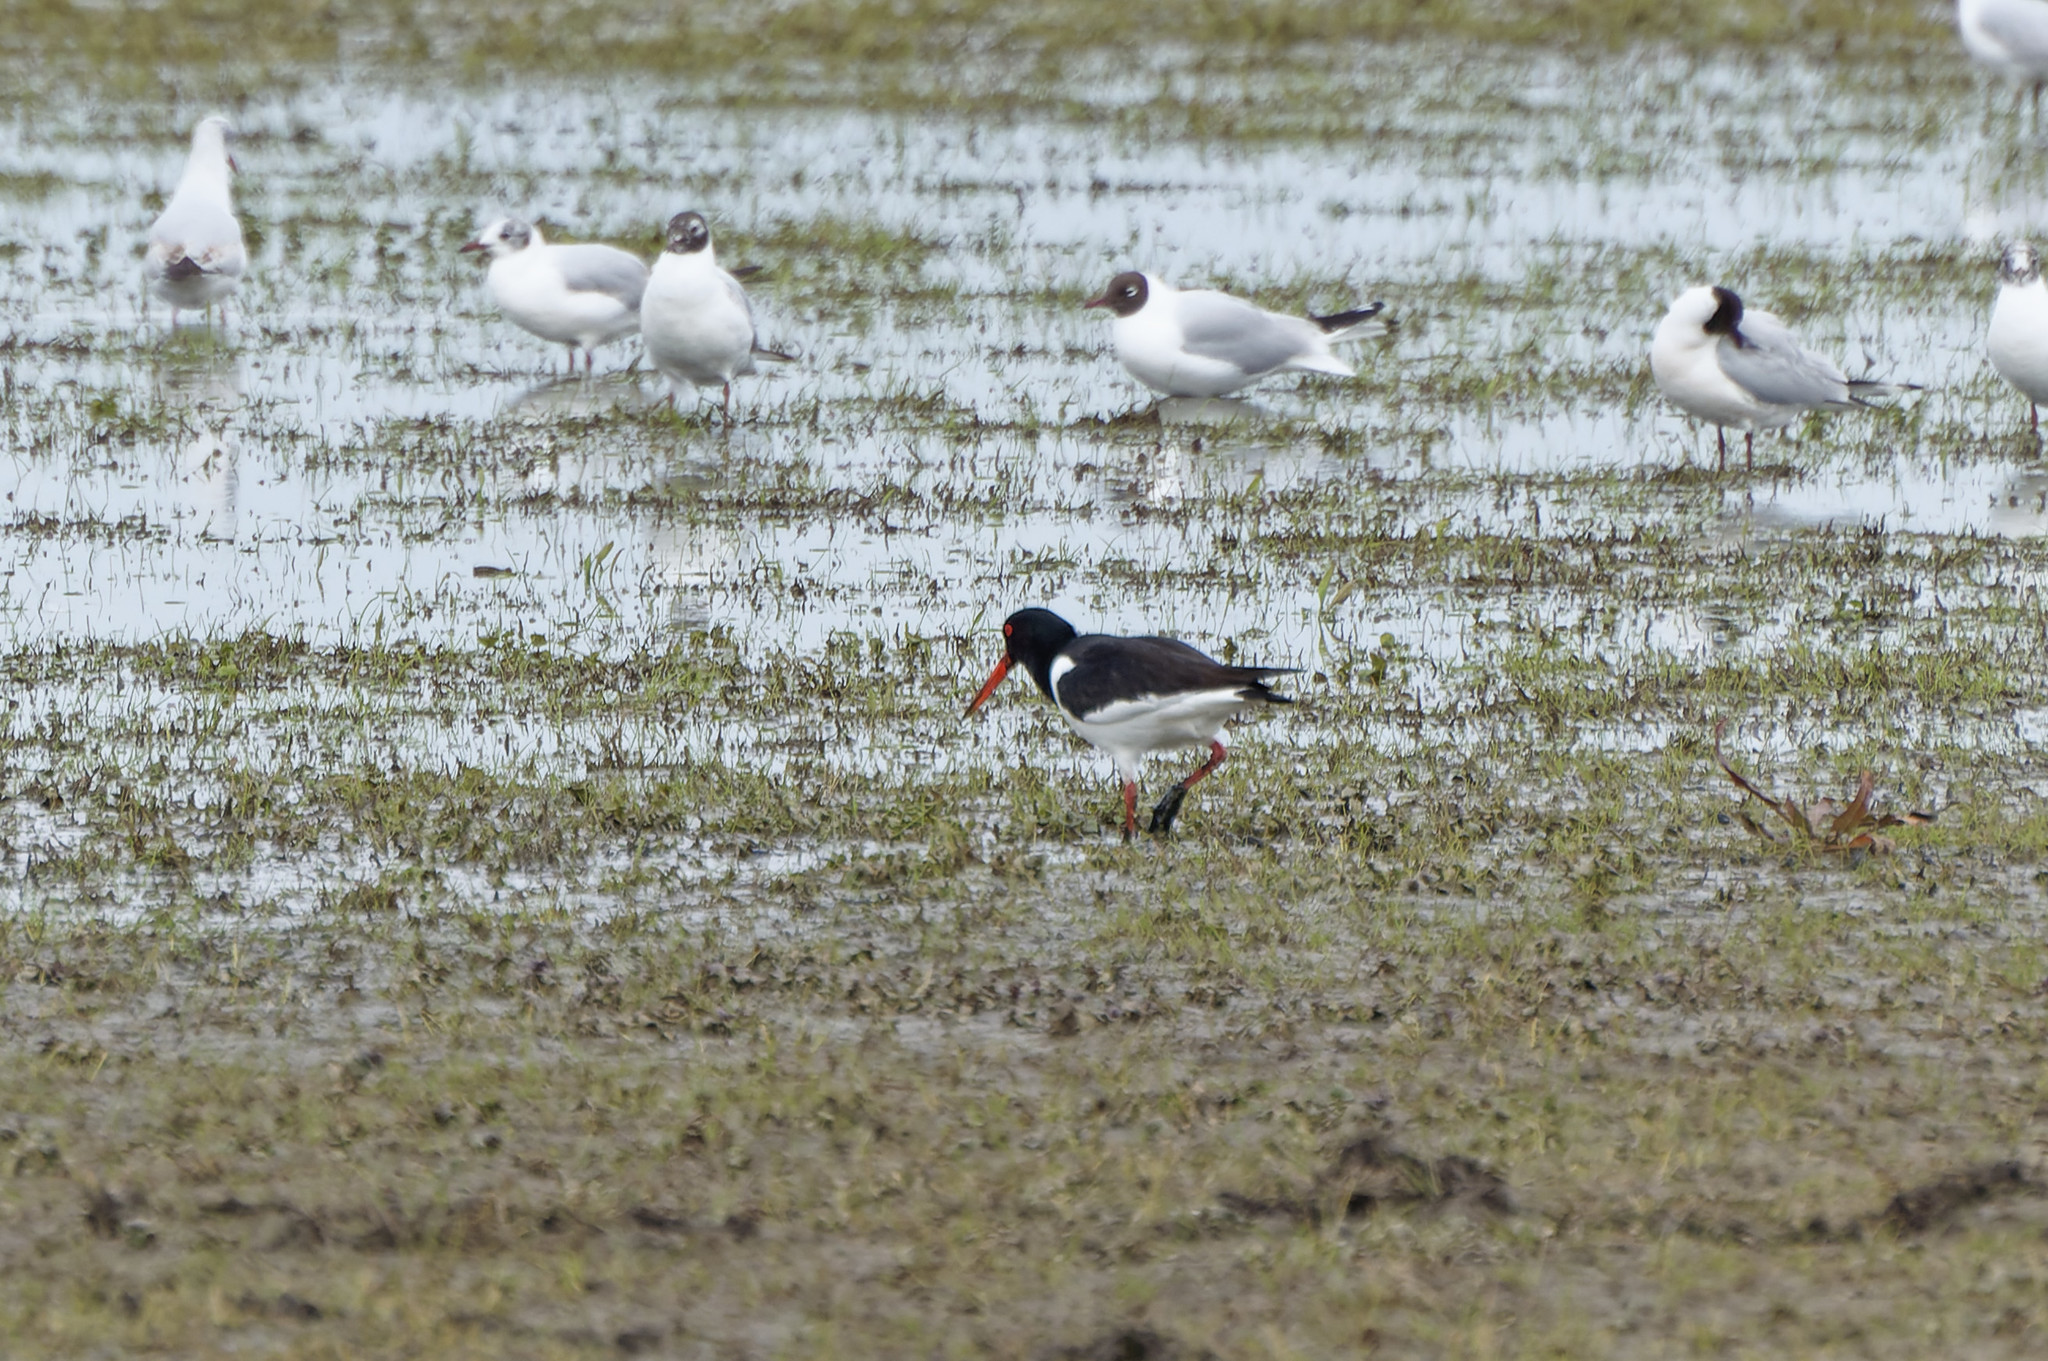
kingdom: Animalia
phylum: Chordata
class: Aves
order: Charadriiformes
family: Haematopodidae
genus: Haematopus
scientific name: Haematopus ostralegus
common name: Eurasian oystercatcher
